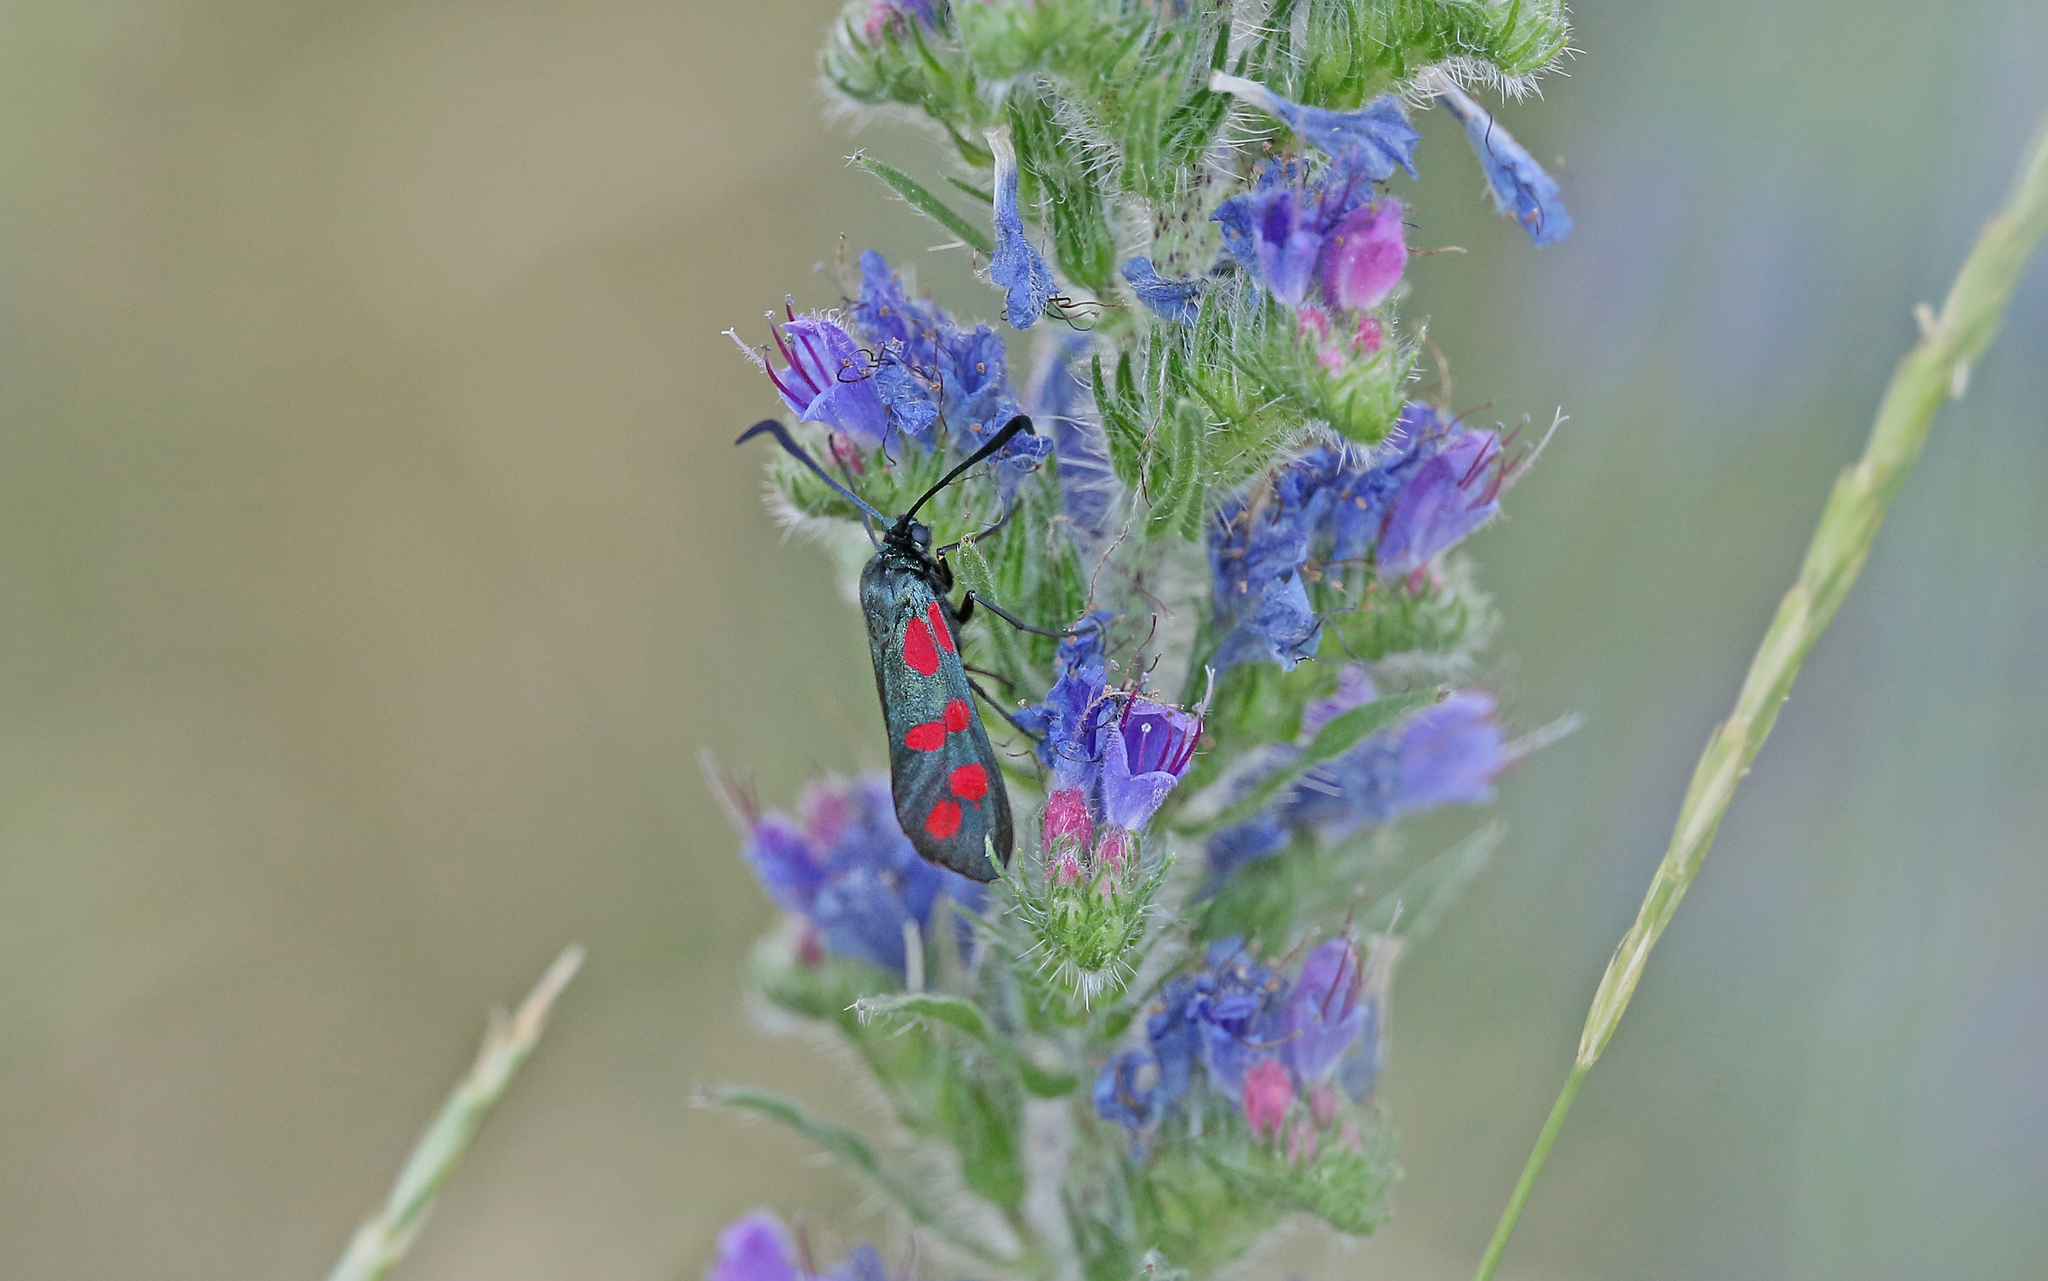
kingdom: Animalia
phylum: Arthropoda
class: Insecta
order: Lepidoptera
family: Zygaenidae
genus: Zygaena
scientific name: Zygaena filipendulae
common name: Six-spot burnet
